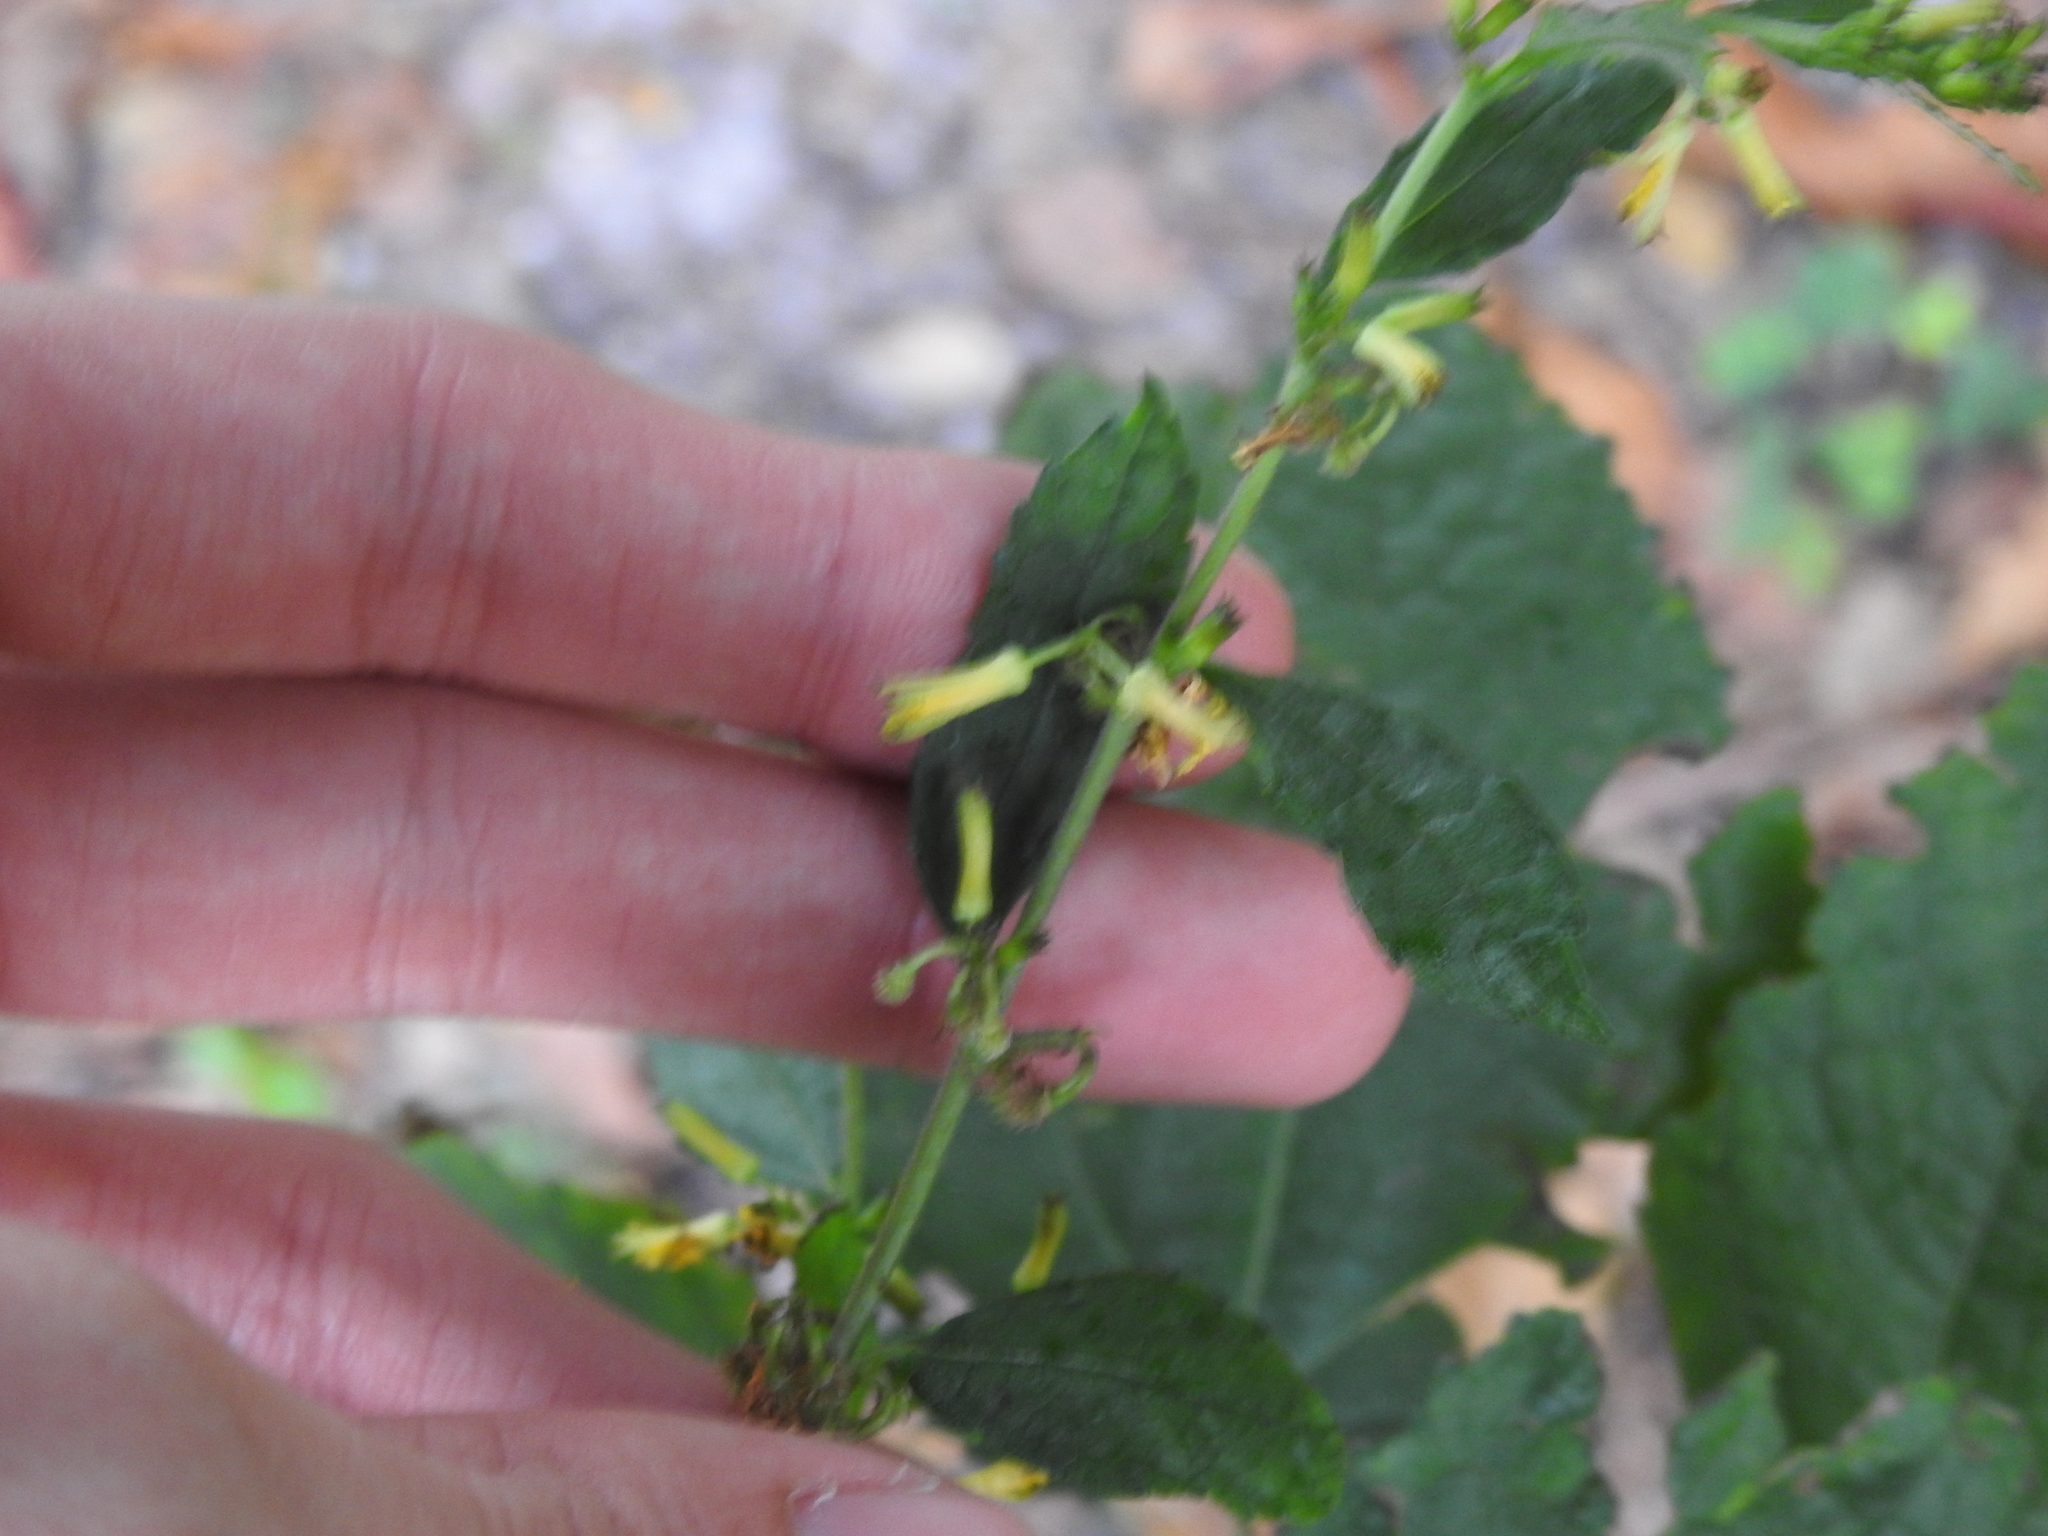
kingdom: Plantae
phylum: Tracheophyta
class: Magnoliopsida
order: Malvales
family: Malvaceae
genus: Triumfetta
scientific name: Triumfetta semitriloba
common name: Sacramento burbark
